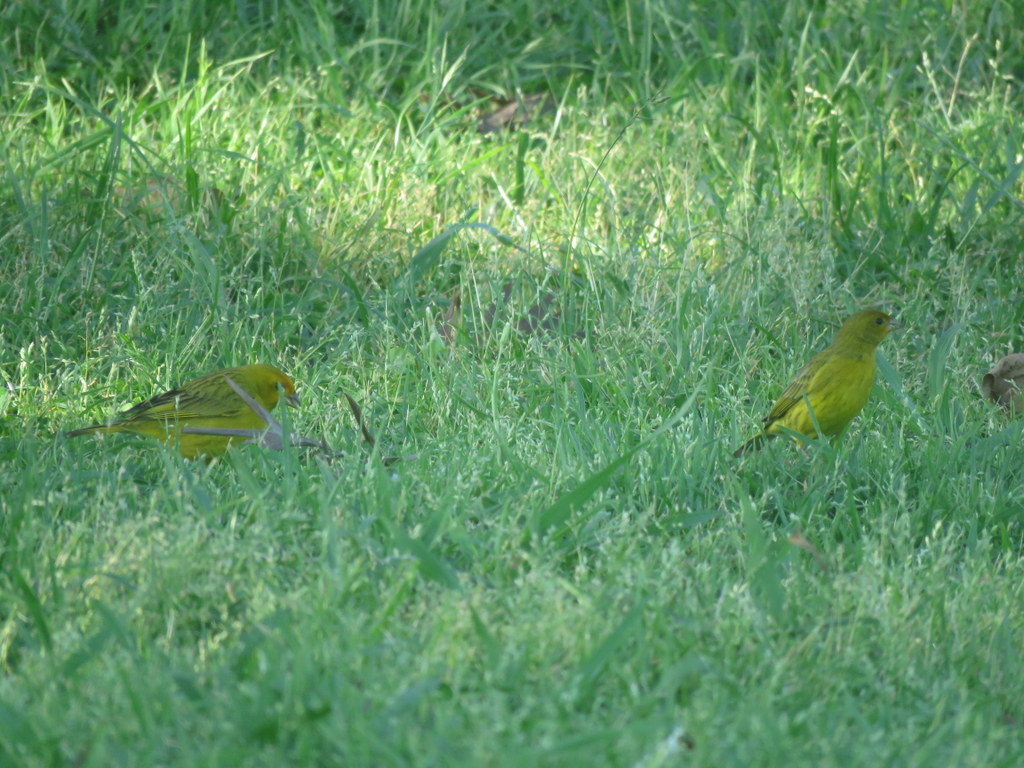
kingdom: Animalia
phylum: Chordata
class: Aves
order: Passeriformes
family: Thraupidae
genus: Sicalis
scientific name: Sicalis flaveola
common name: Saffron finch
